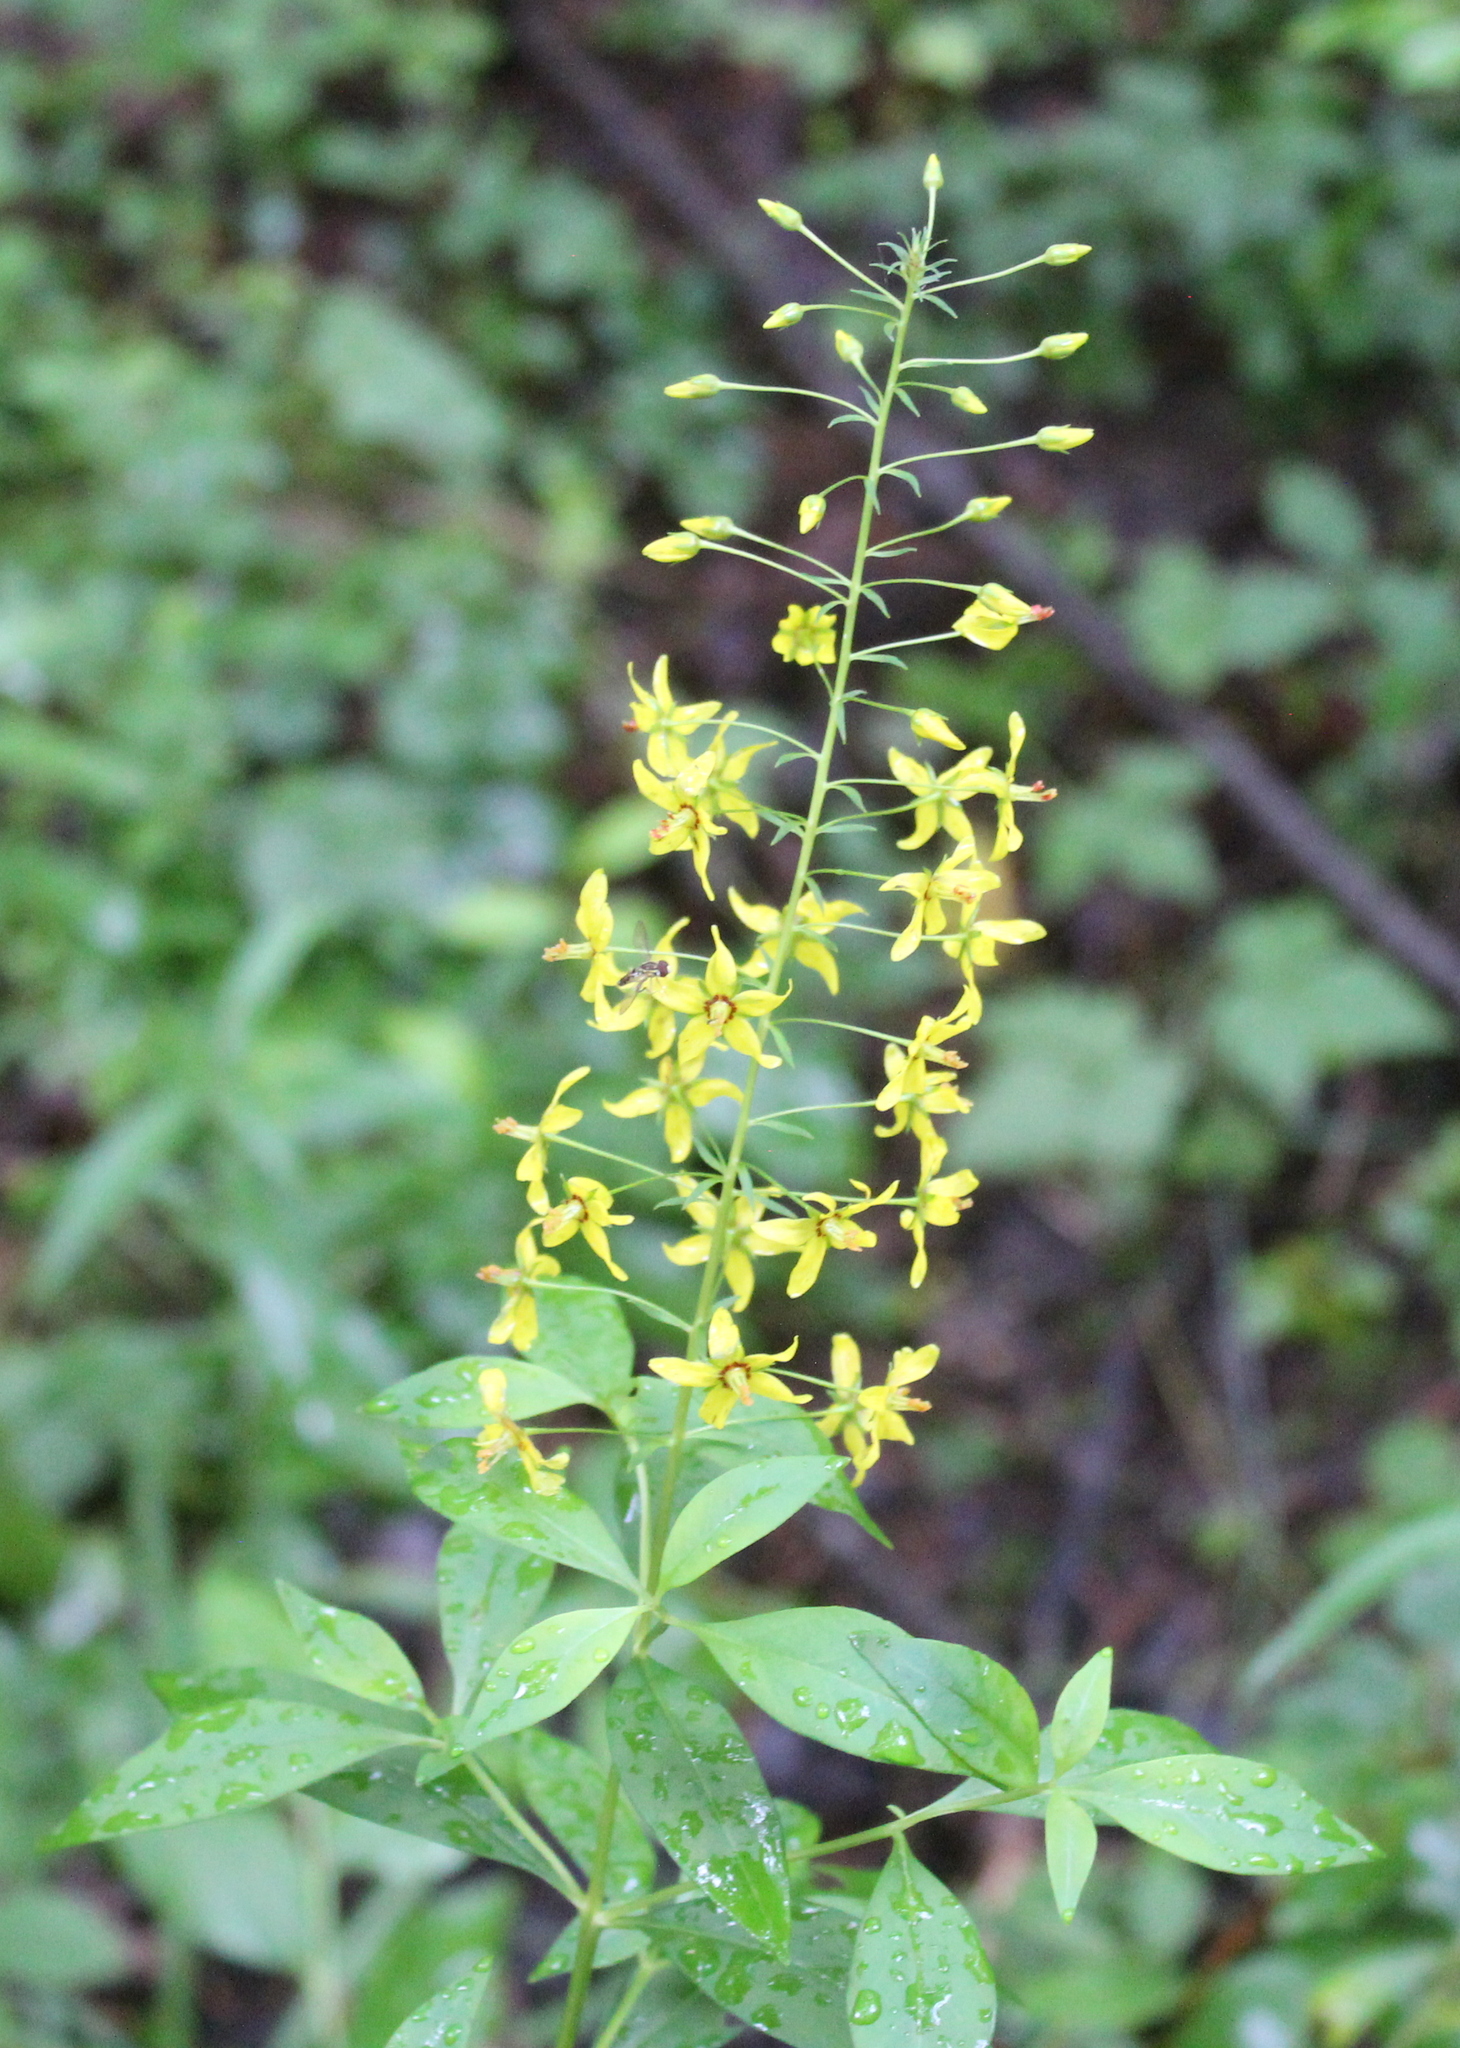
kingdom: Plantae
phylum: Tracheophyta
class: Magnoliopsida
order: Ericales
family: Primulaceae
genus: Lysimachia
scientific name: Lysimachia terrestris
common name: Lake loosestrife
